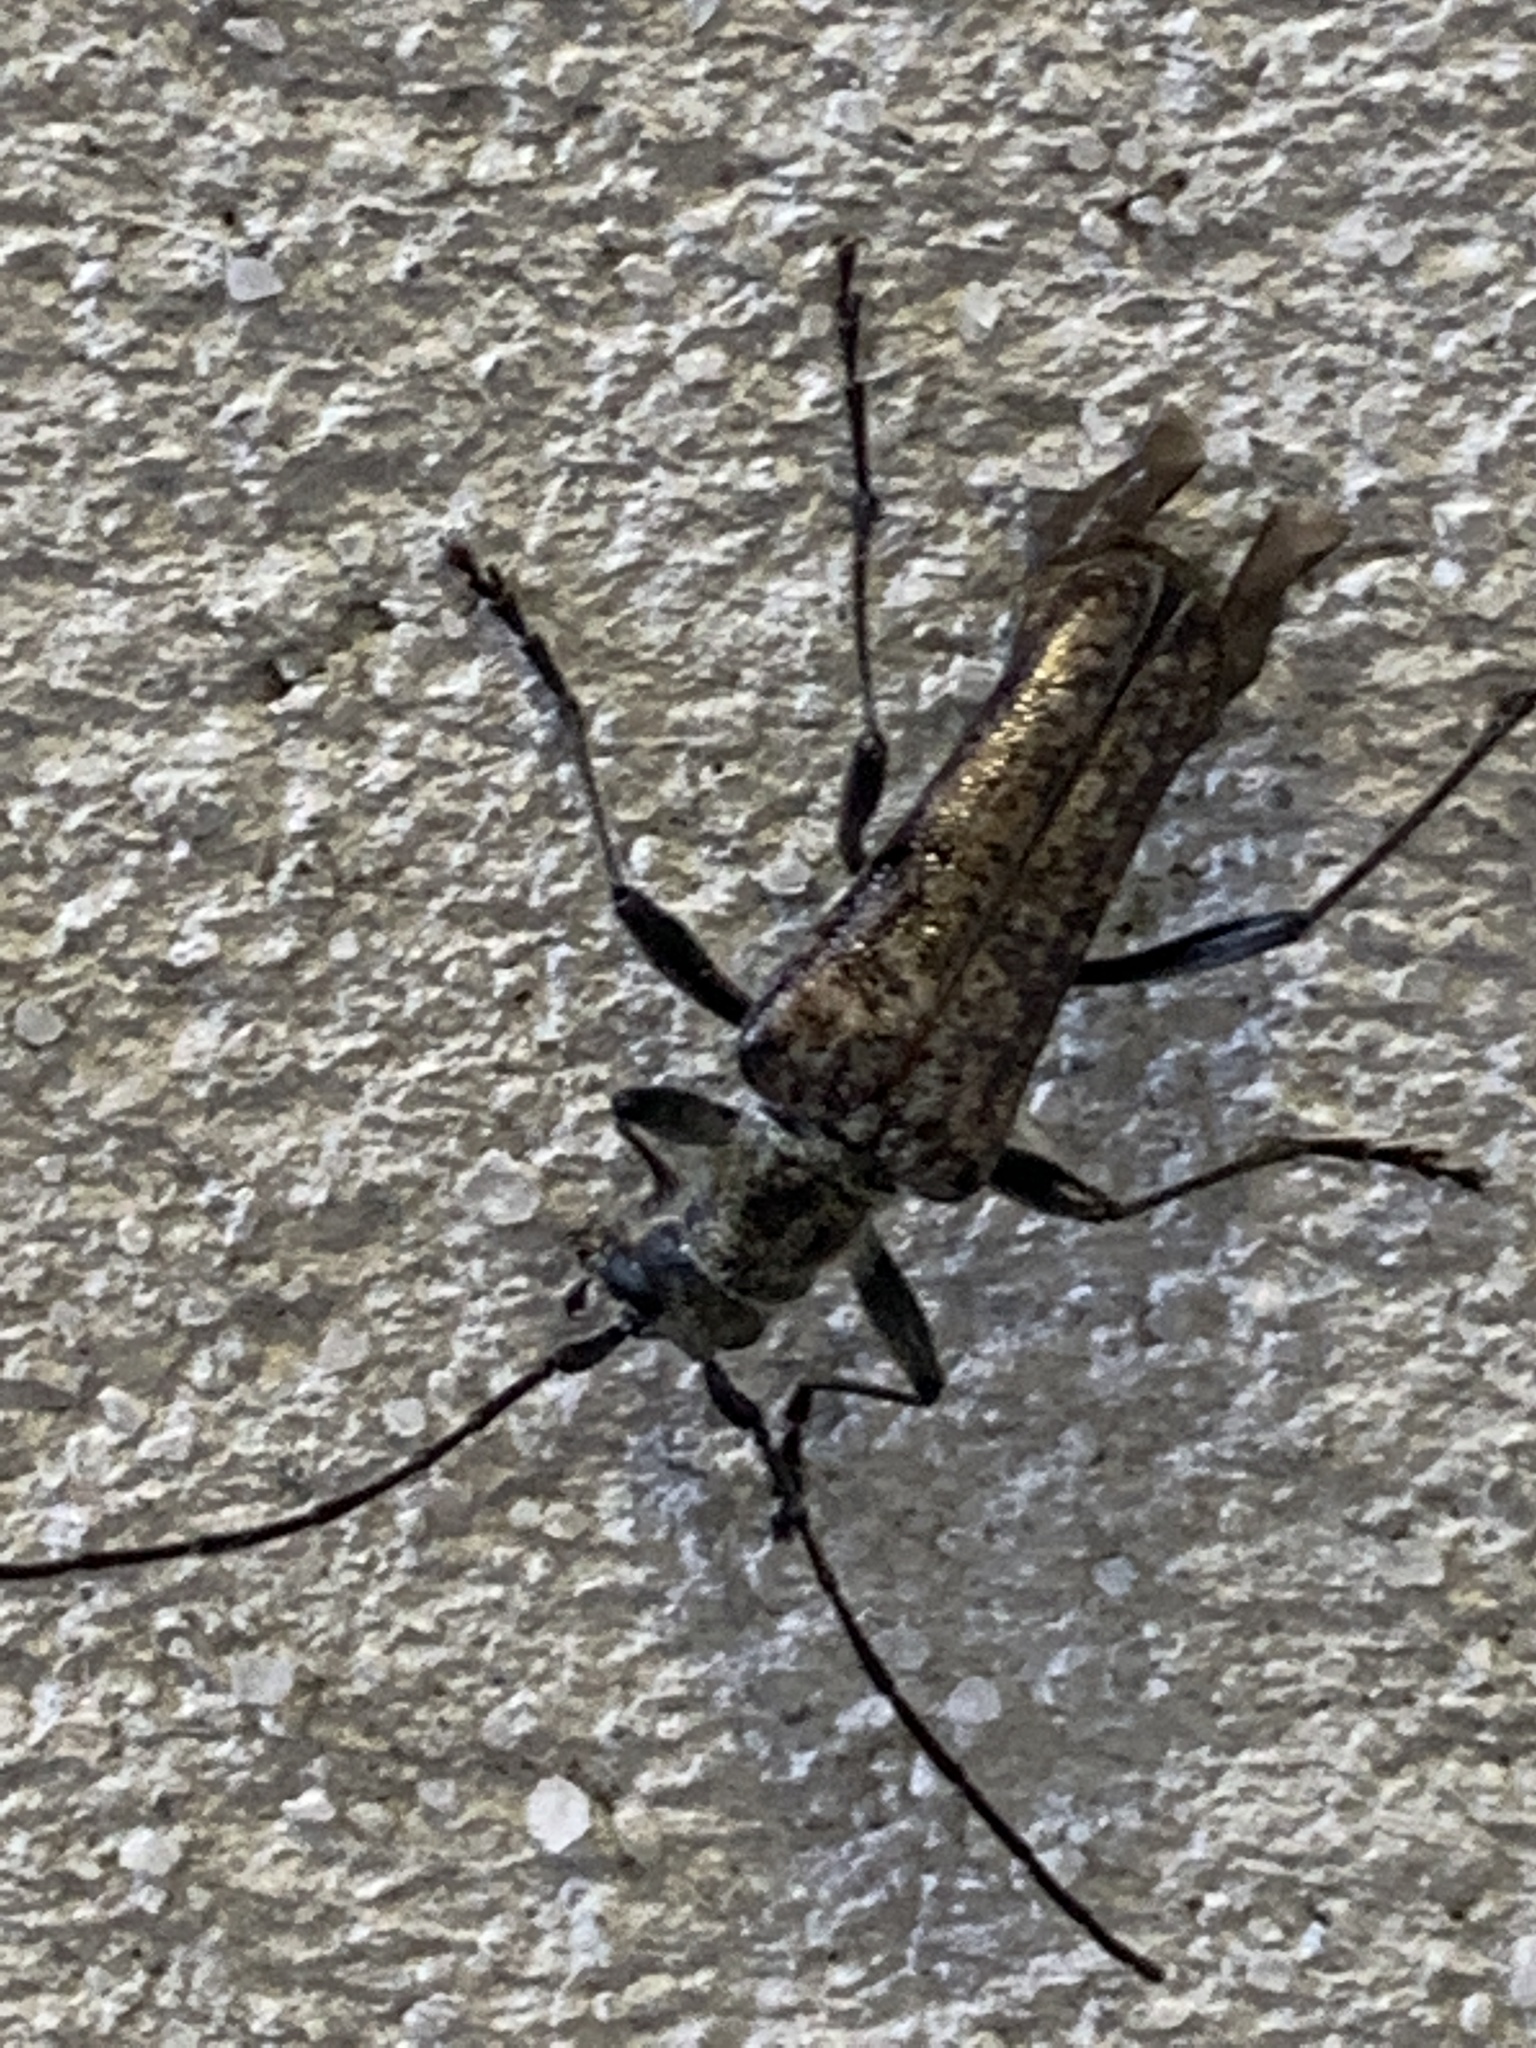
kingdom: Animalia
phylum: Arthropoda
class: Insecta
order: Coleoptera
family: Cerambycidae
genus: Anthophylax
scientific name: Anthophylax attenuatus
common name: Mottled longhorned beetle
